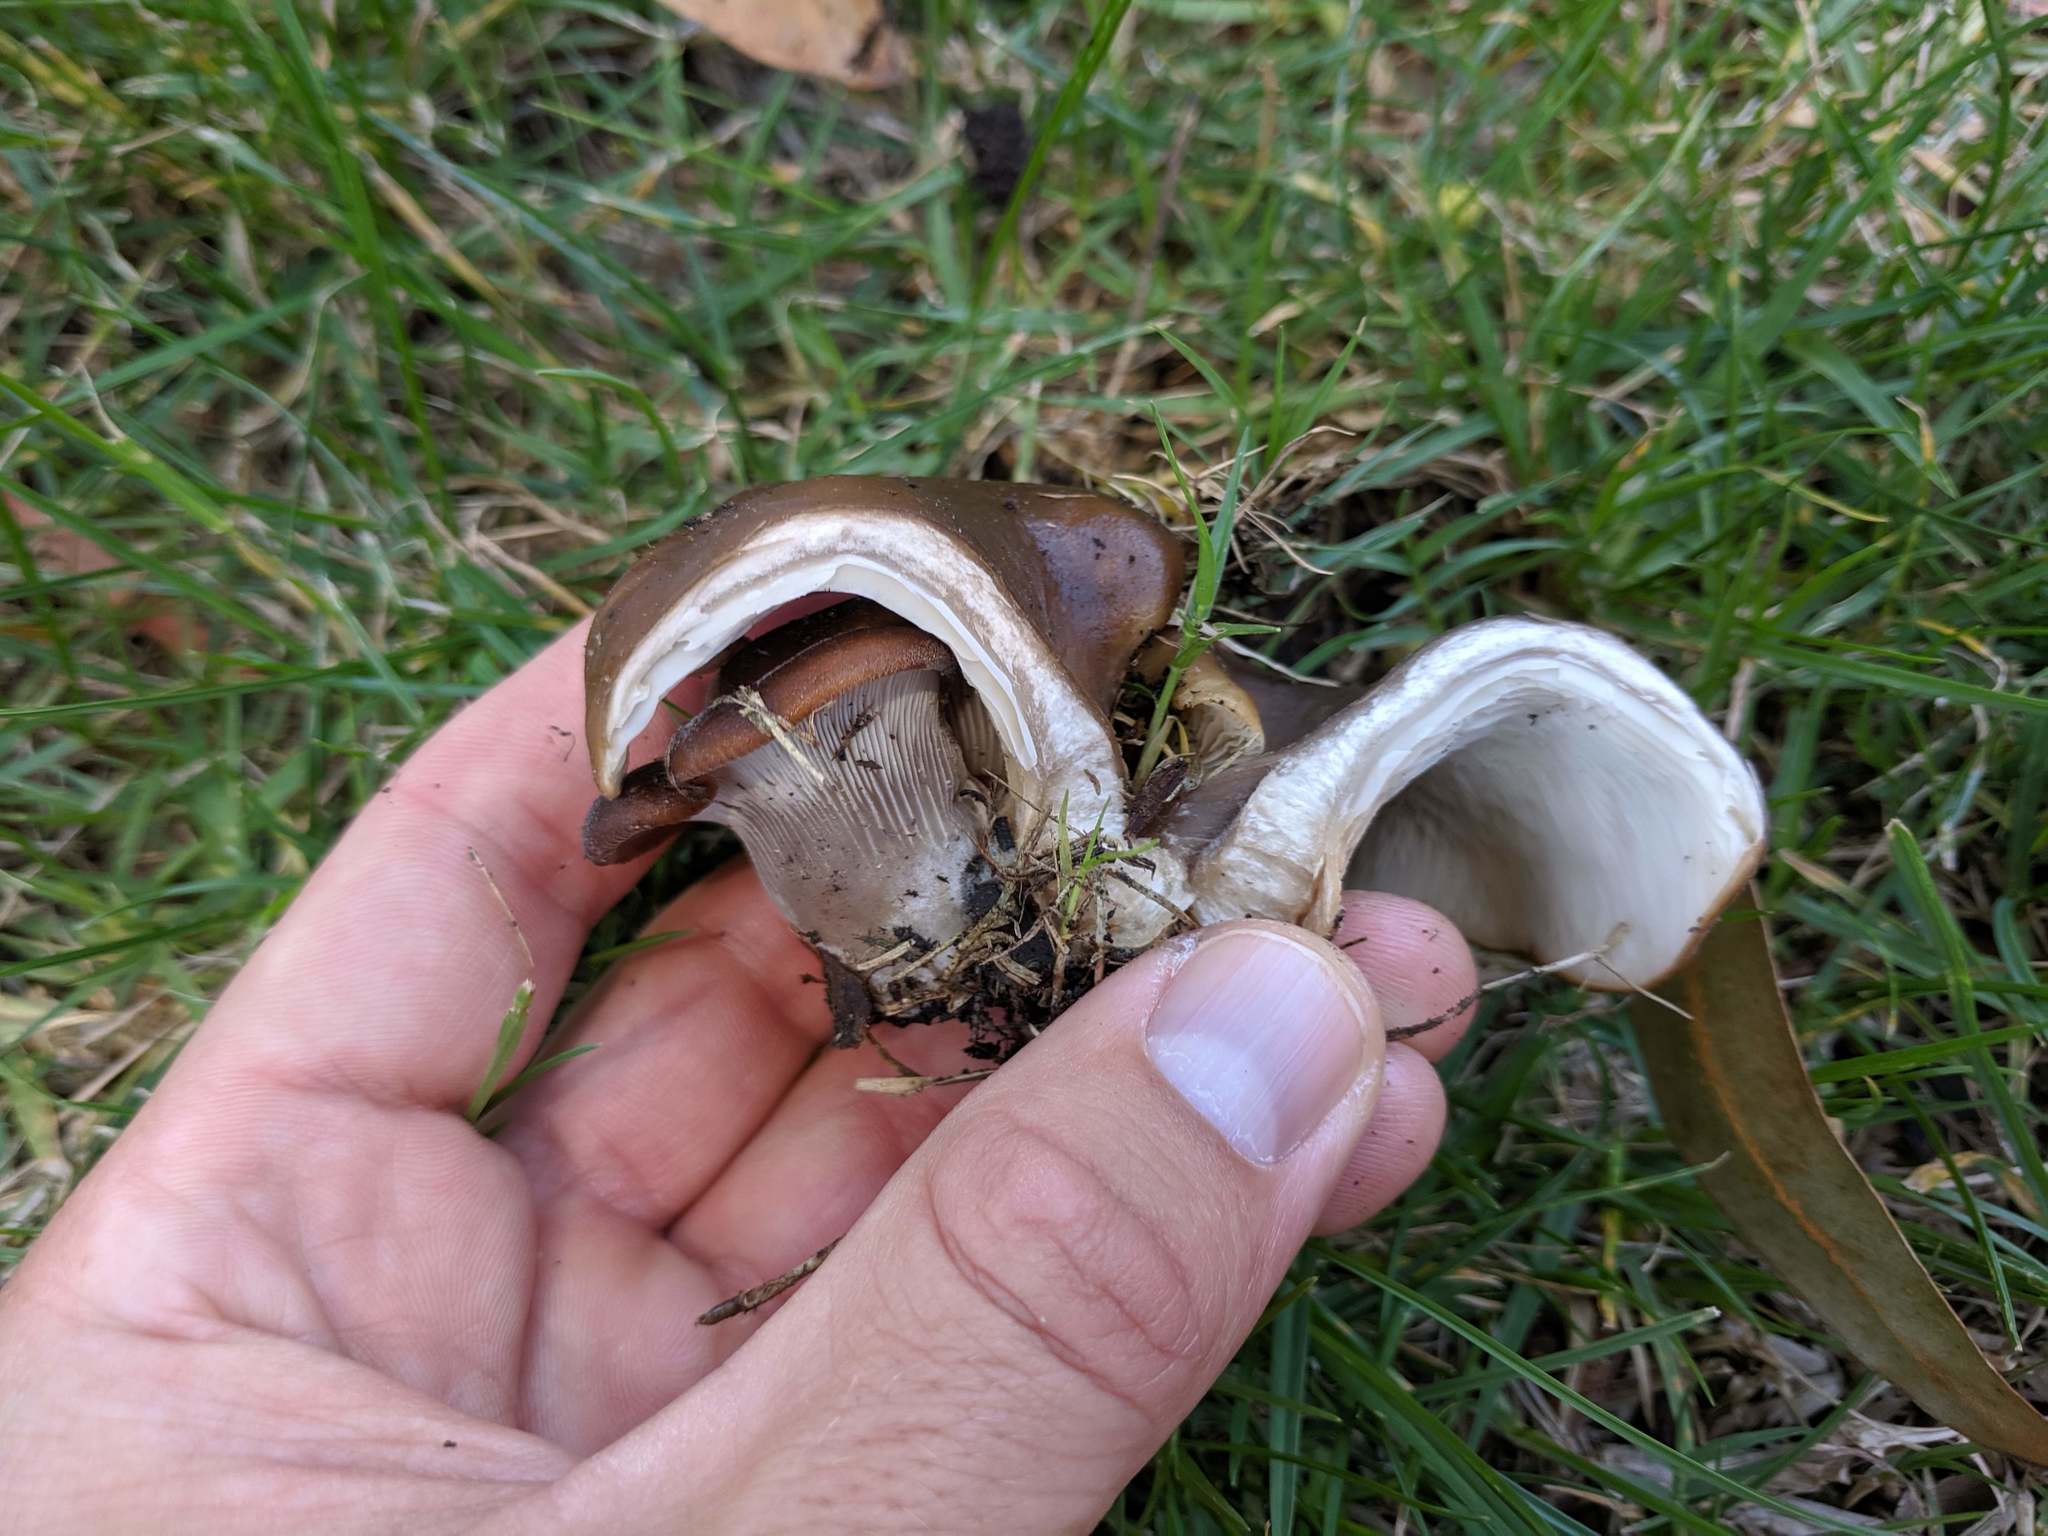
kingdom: Fungi
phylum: Basidiomycota
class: Agaricomycetes
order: Agaricales
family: Pleurotaceae
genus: Hohenbuehelia
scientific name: Hohenbuehelia petaloides
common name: Shoehorn oyster
